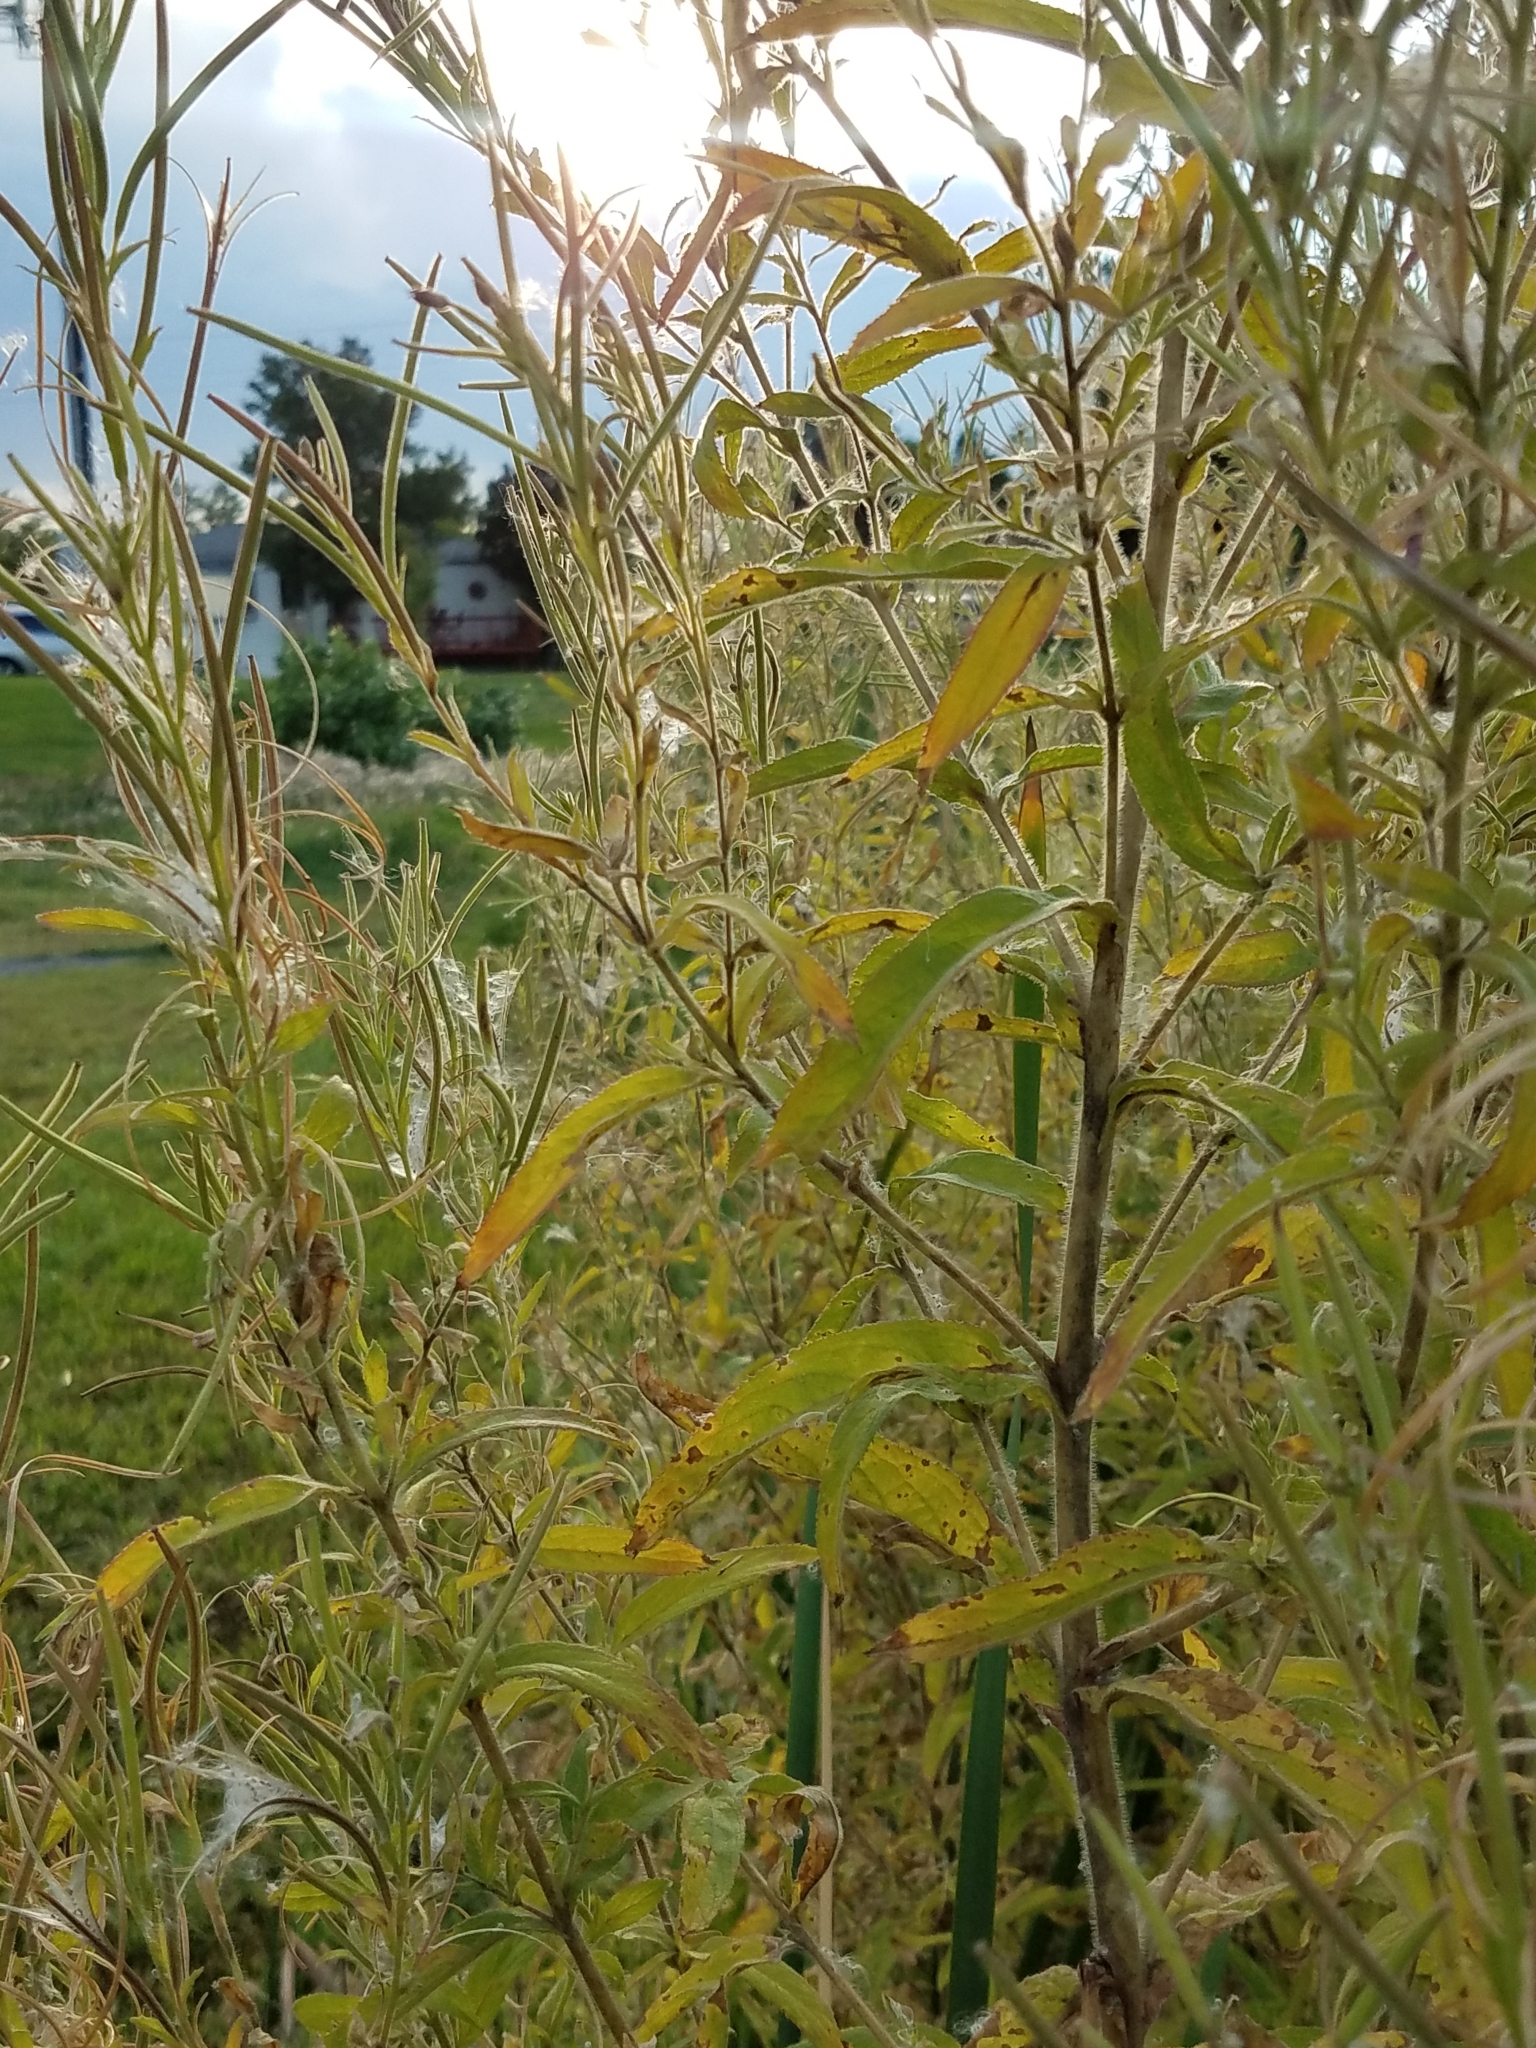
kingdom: Plantae
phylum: Tracheophyta
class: Magnoliopsida
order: Myrtales
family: Onagraceae
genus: Epilobium
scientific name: Epilobium hirsutum
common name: Great willowherb
